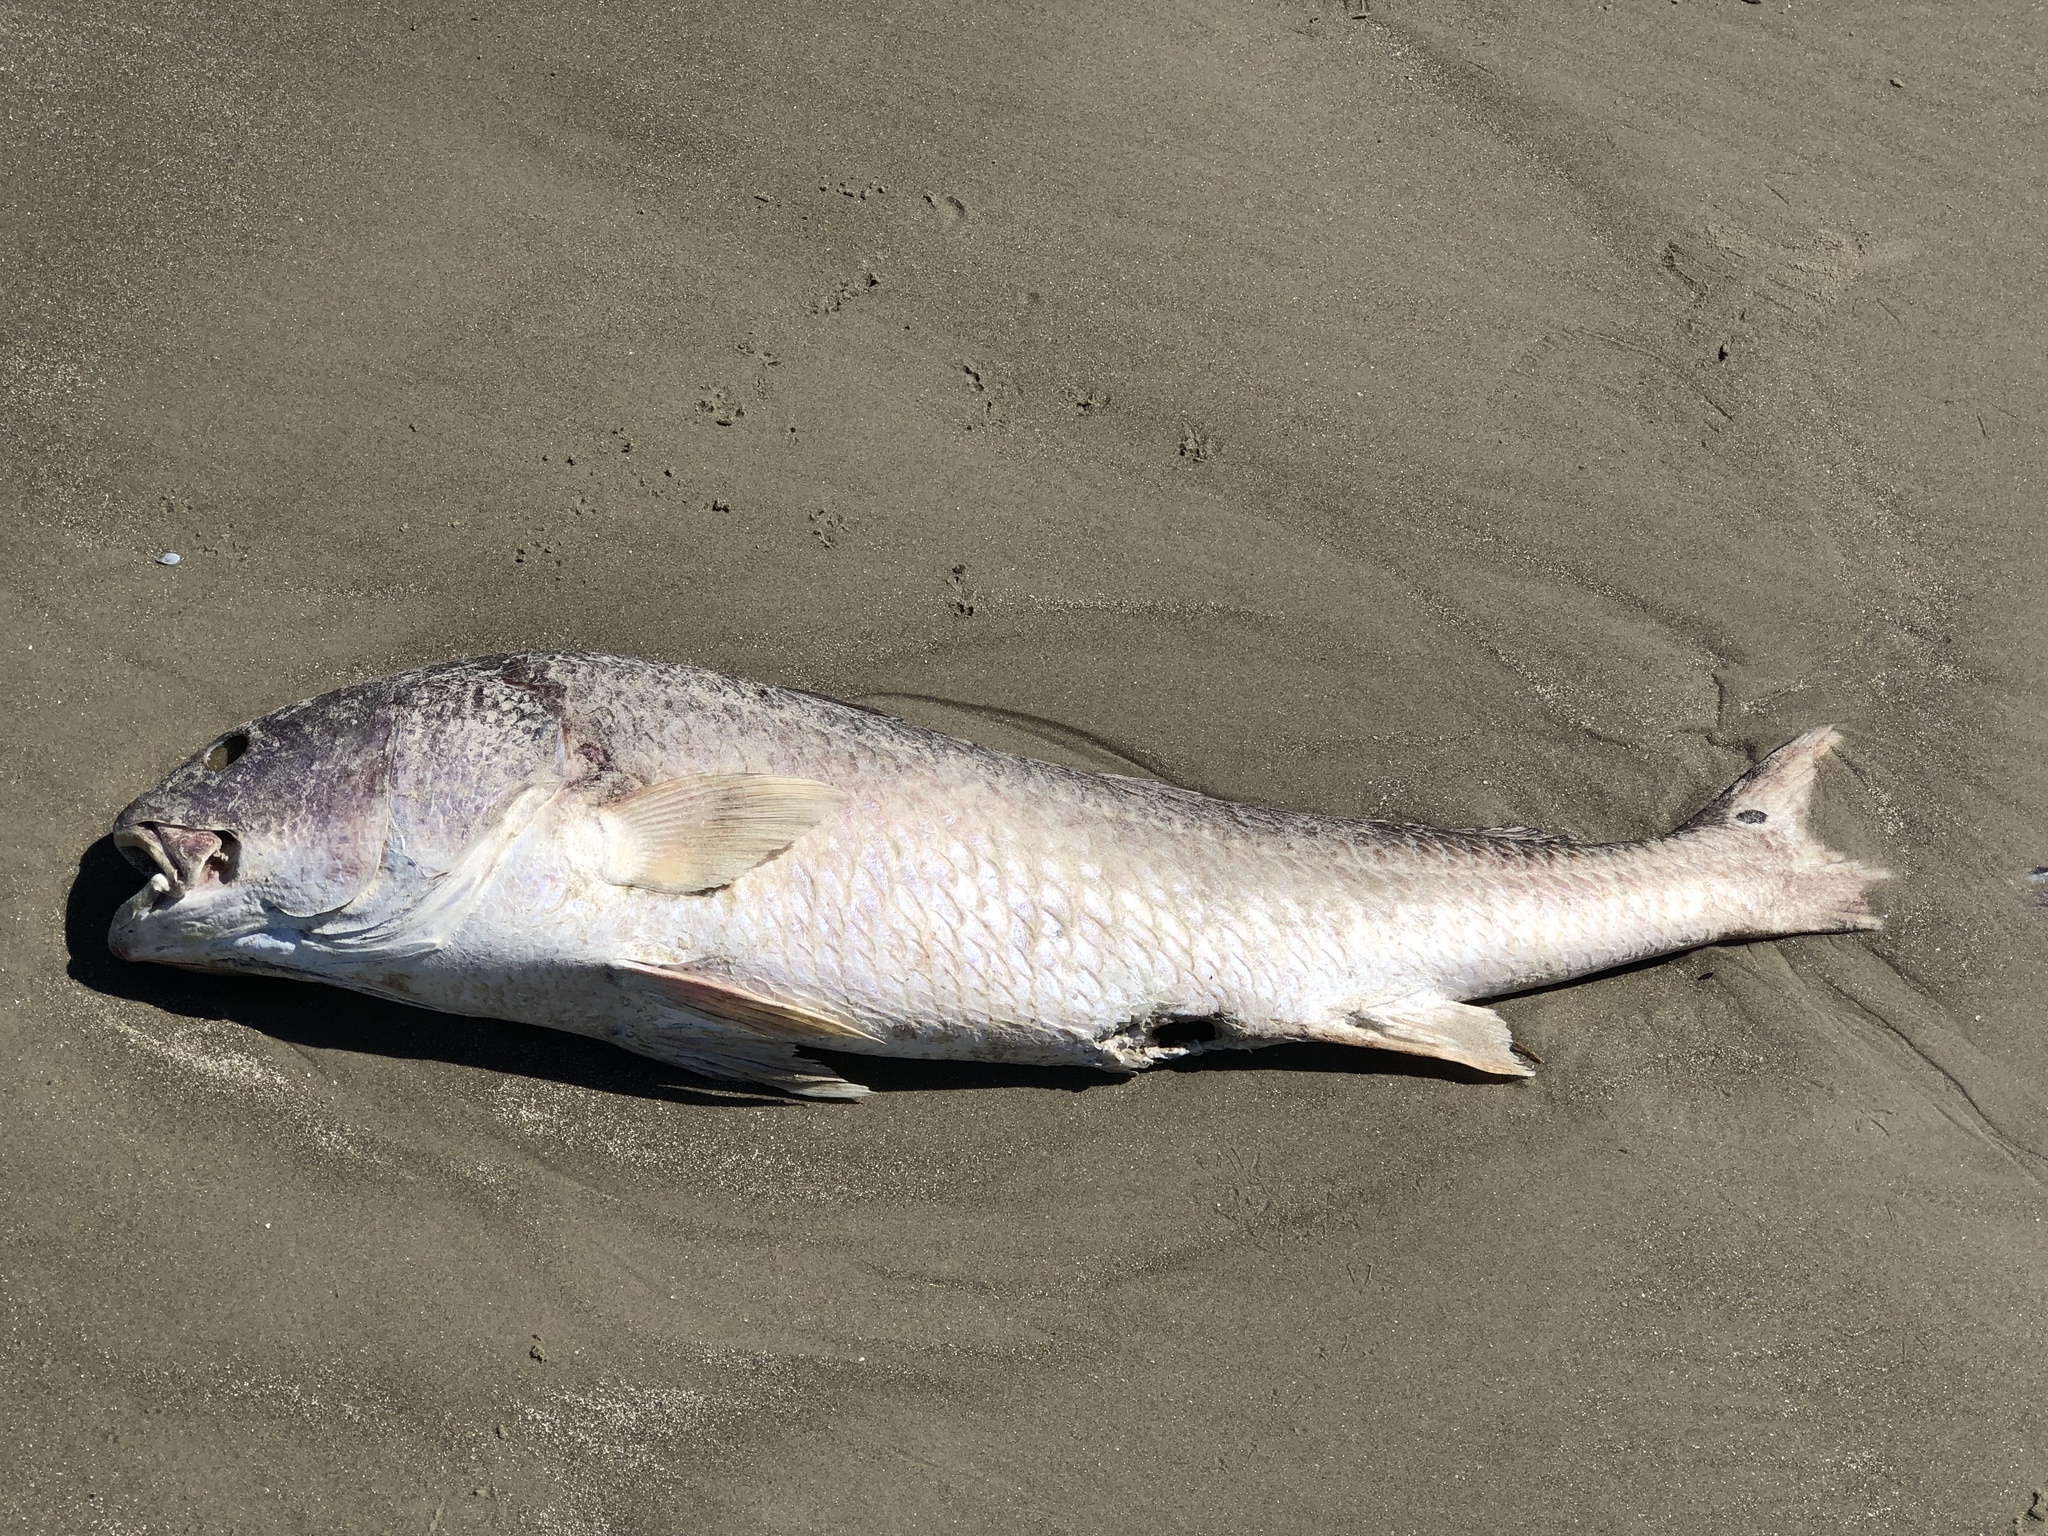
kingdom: Animalia
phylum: Chordata
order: Perciformes
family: Sciaenidae
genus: Sciaenops
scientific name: Sciaenops ocellatus
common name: Red drum
